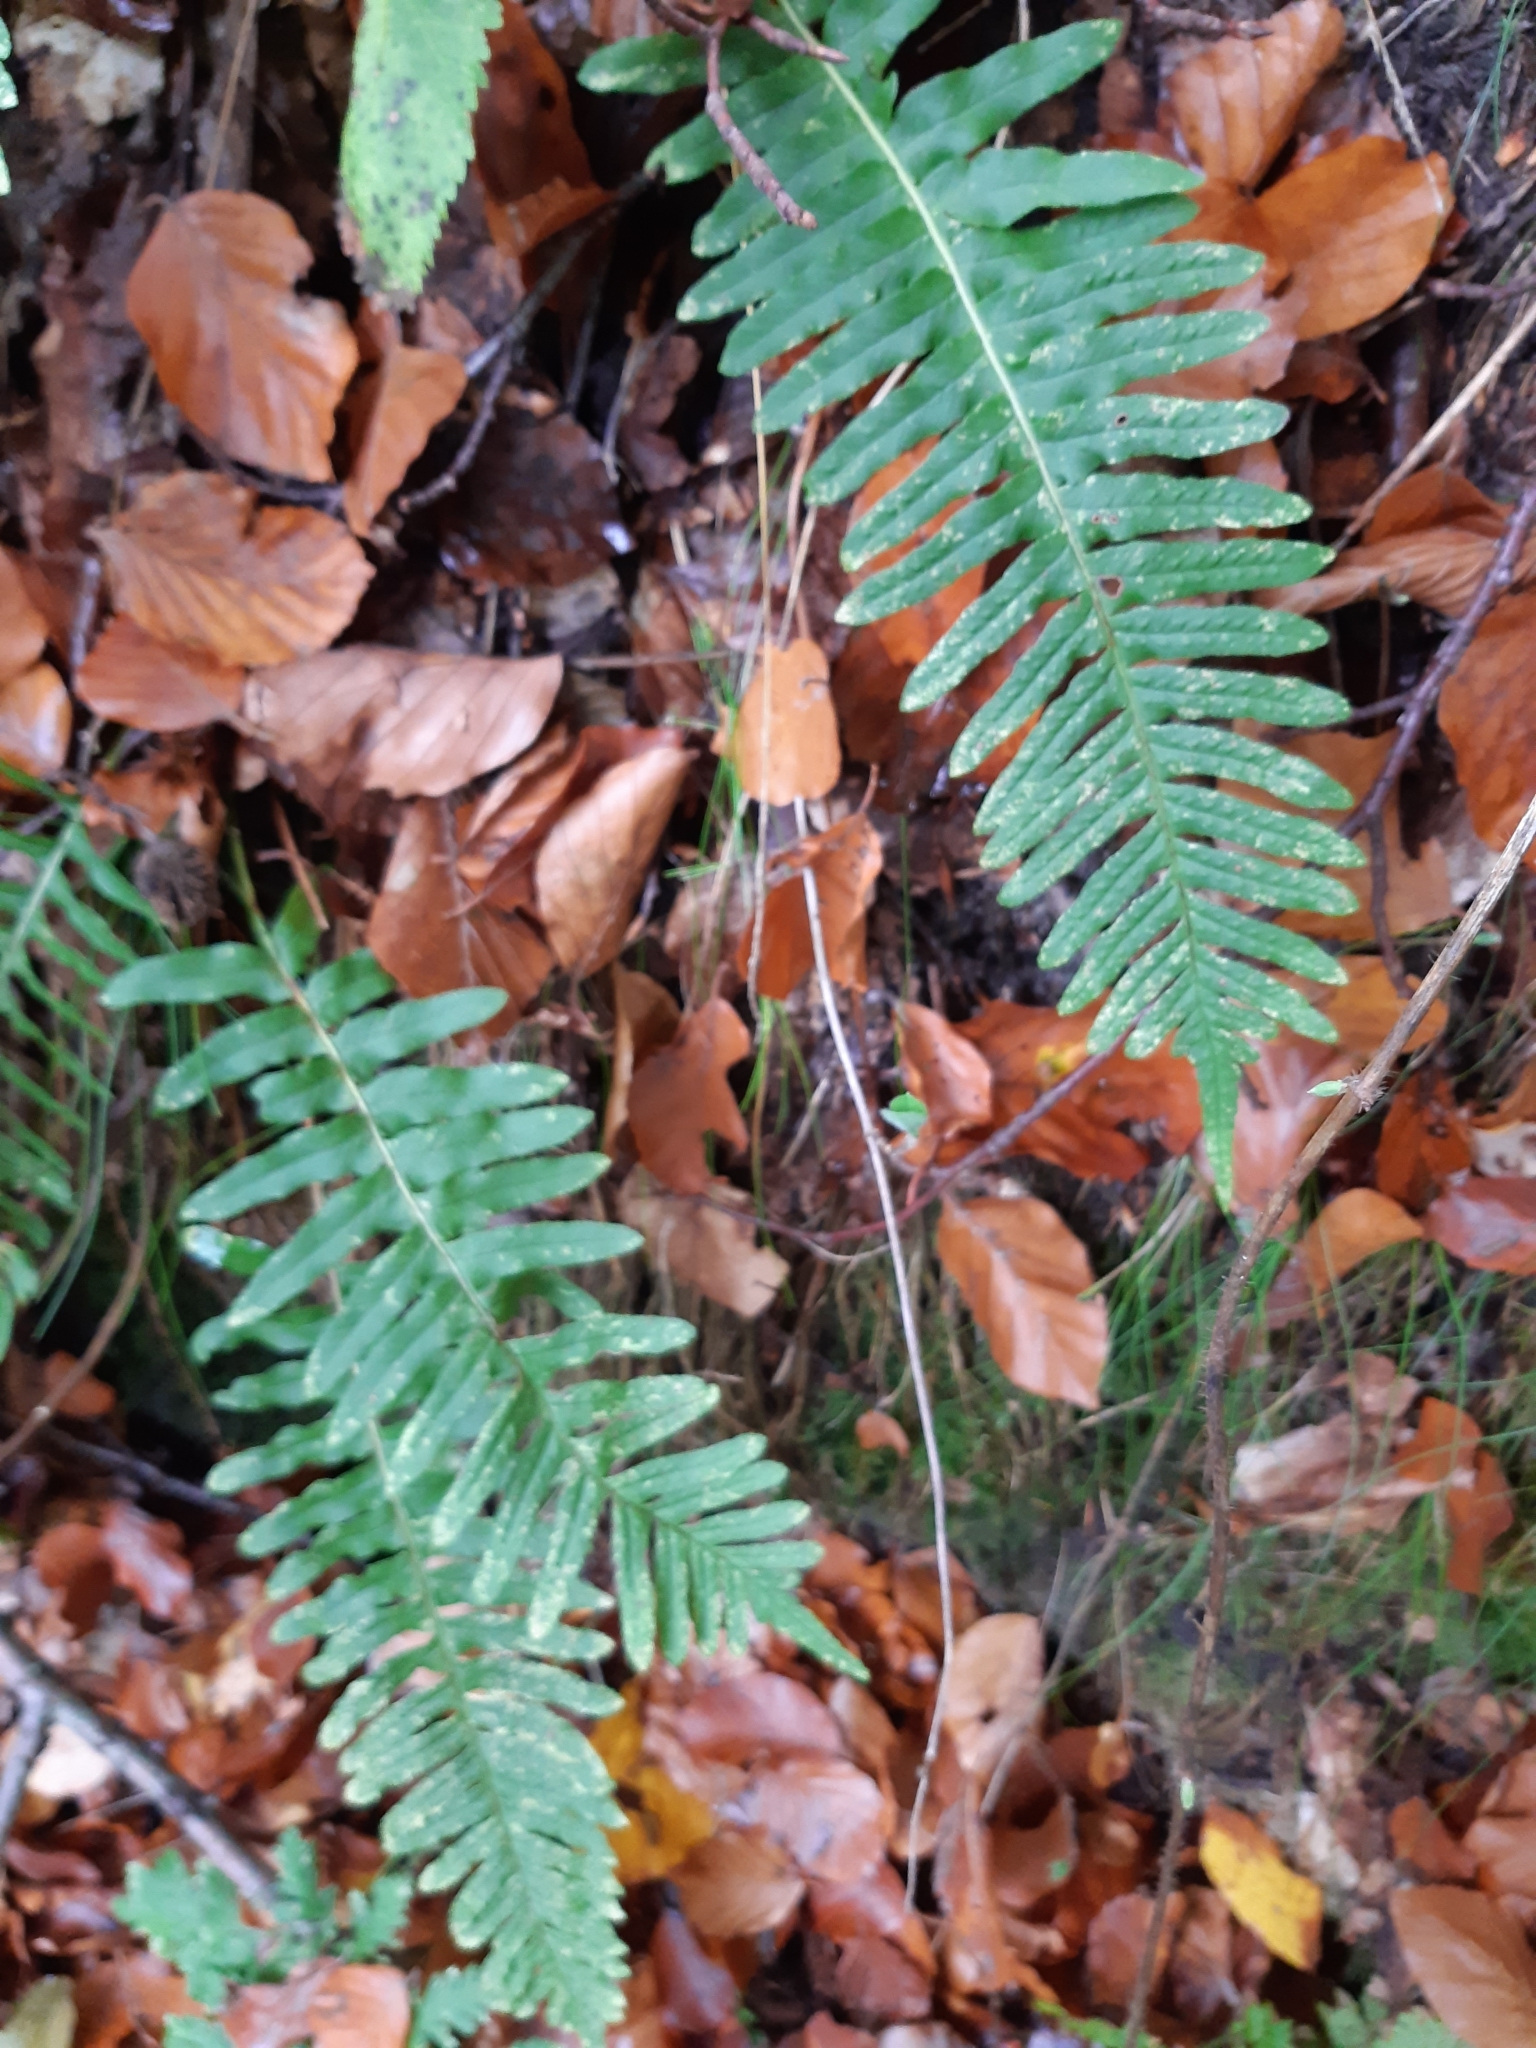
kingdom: Plantae
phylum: Tracheophyta
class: Polypodiopsida
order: Polypodiales
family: Polypodiaceae
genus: Polypodium
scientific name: Polypodium vulgare
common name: Common polypody
